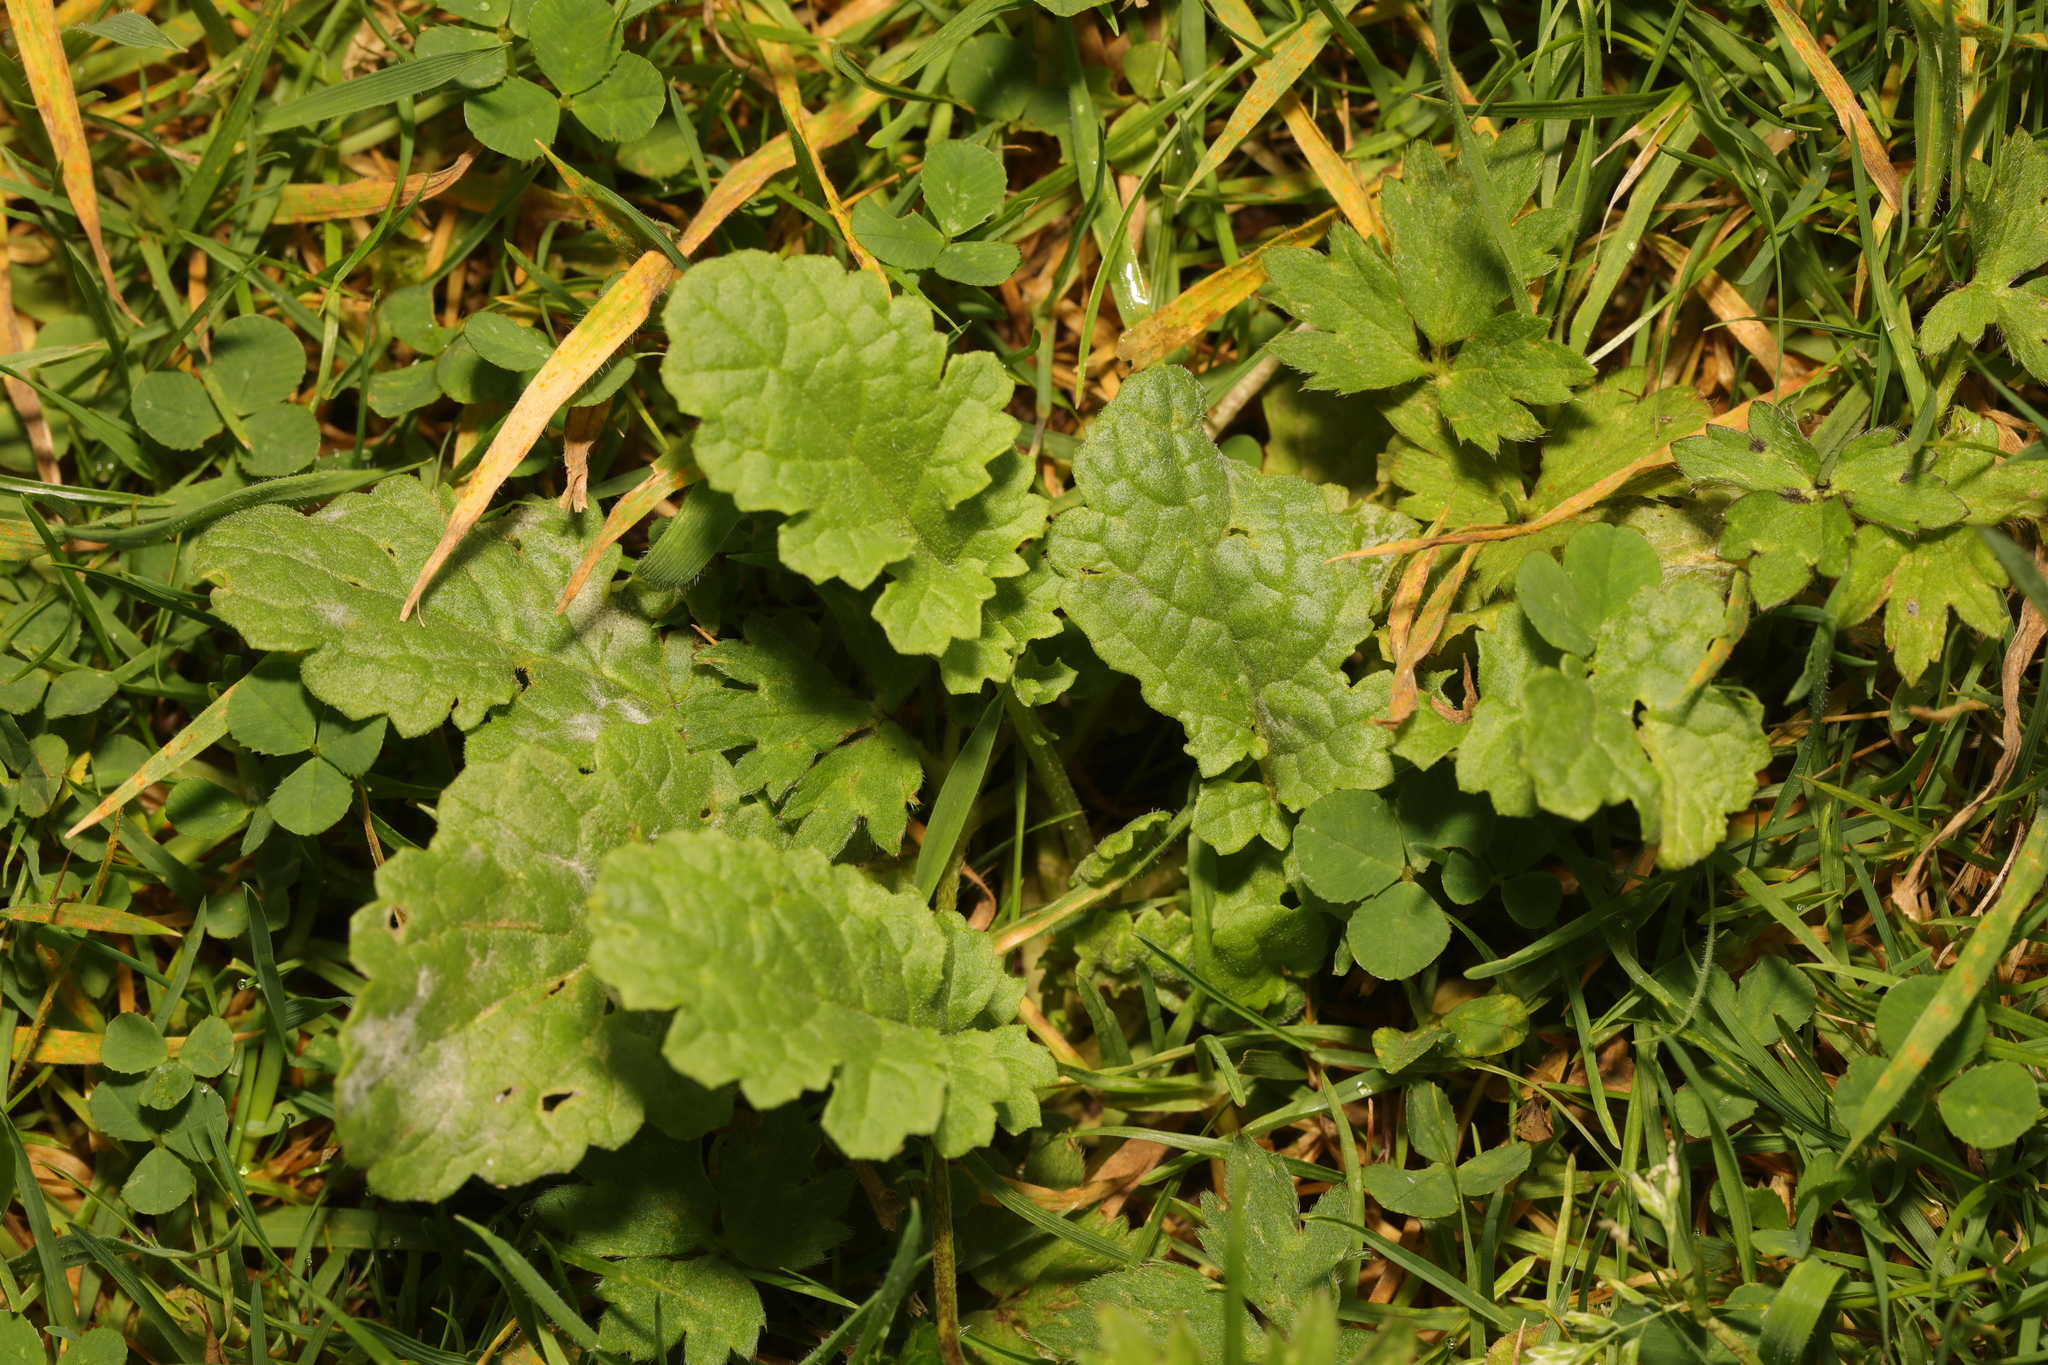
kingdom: Plantae
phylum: Tracheophyta
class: Magnoliopsida
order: Asterales
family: Asteraceae
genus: Jacobaea
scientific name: Jacobaea vulgaris
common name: Stinking willie
